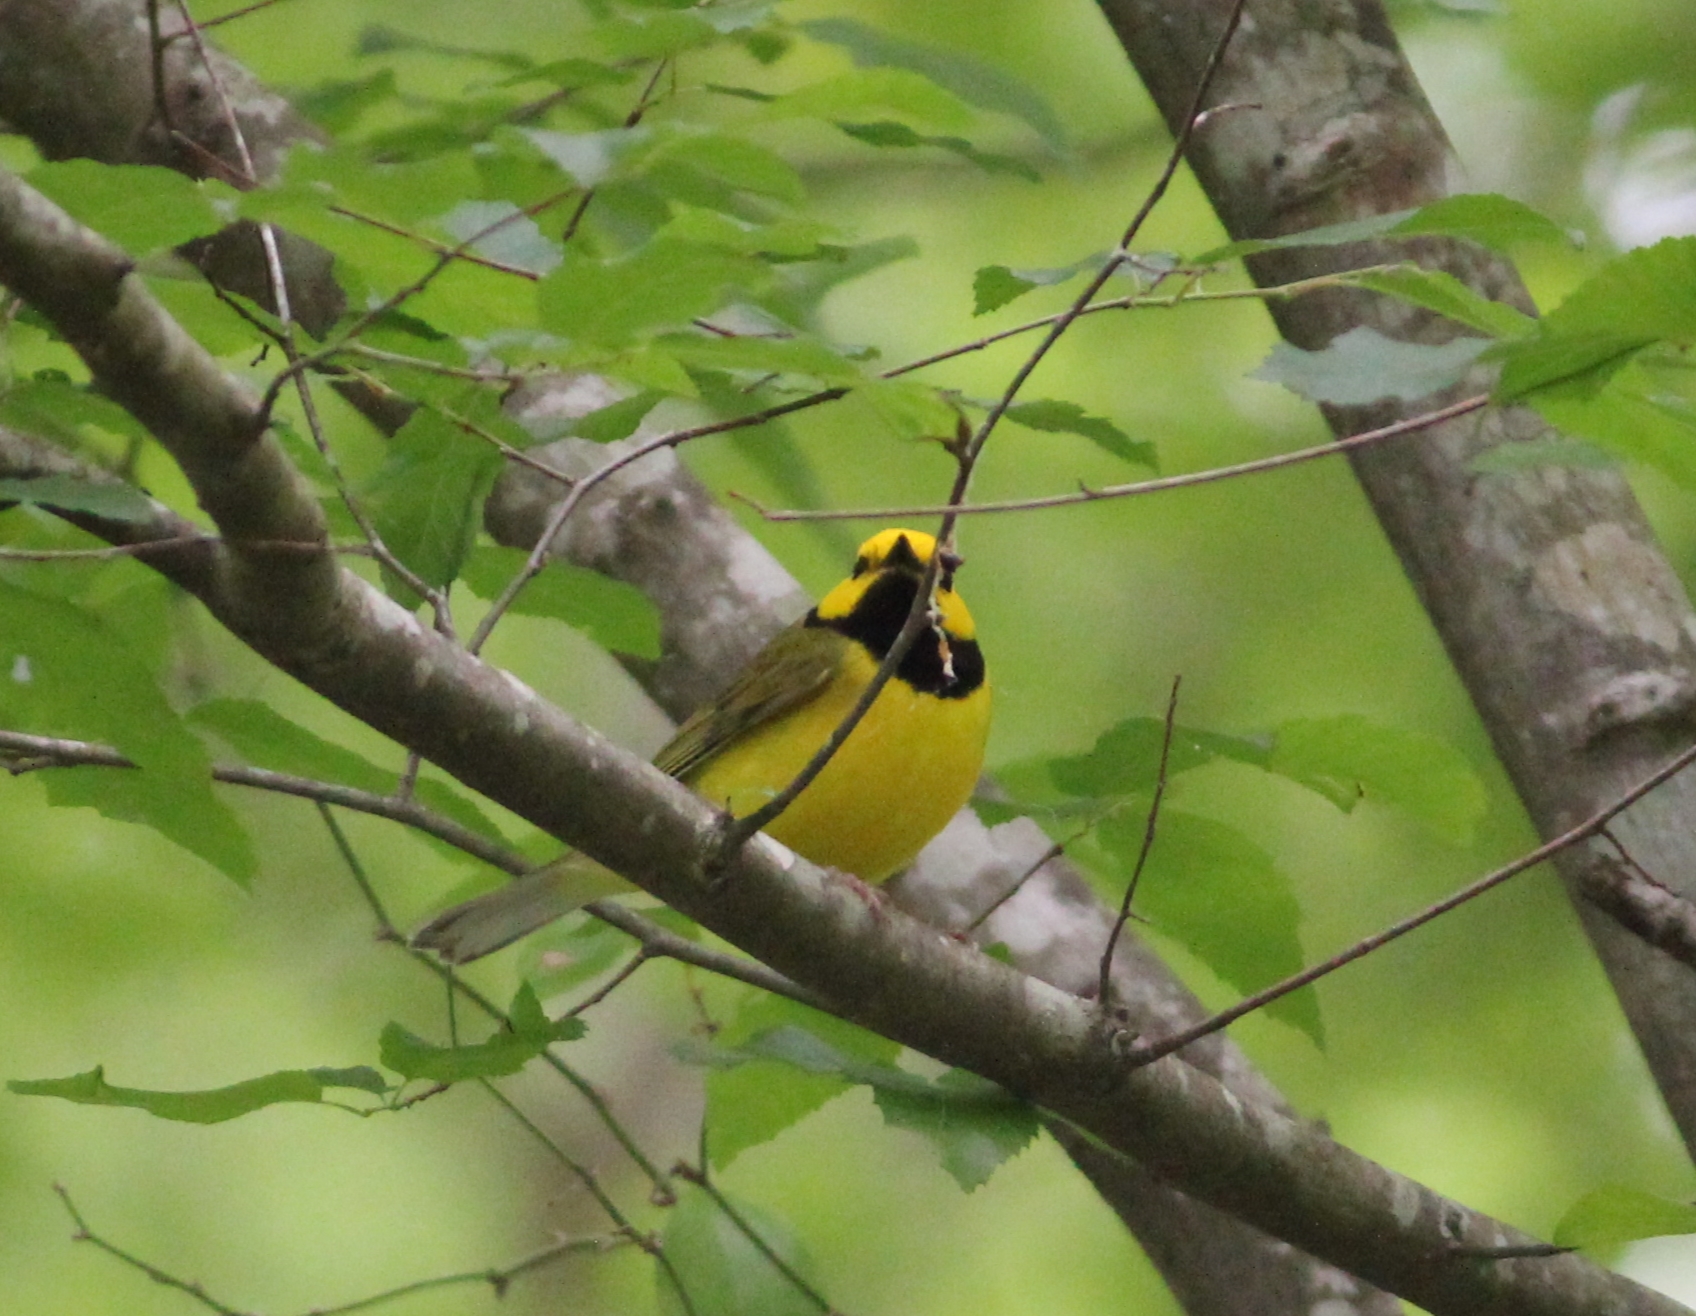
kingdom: Animalia
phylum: Chordata
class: Aves
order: Passeriformes
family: Parulidae
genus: Setophaga
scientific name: Setophaga citrina
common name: Hooded warbler
